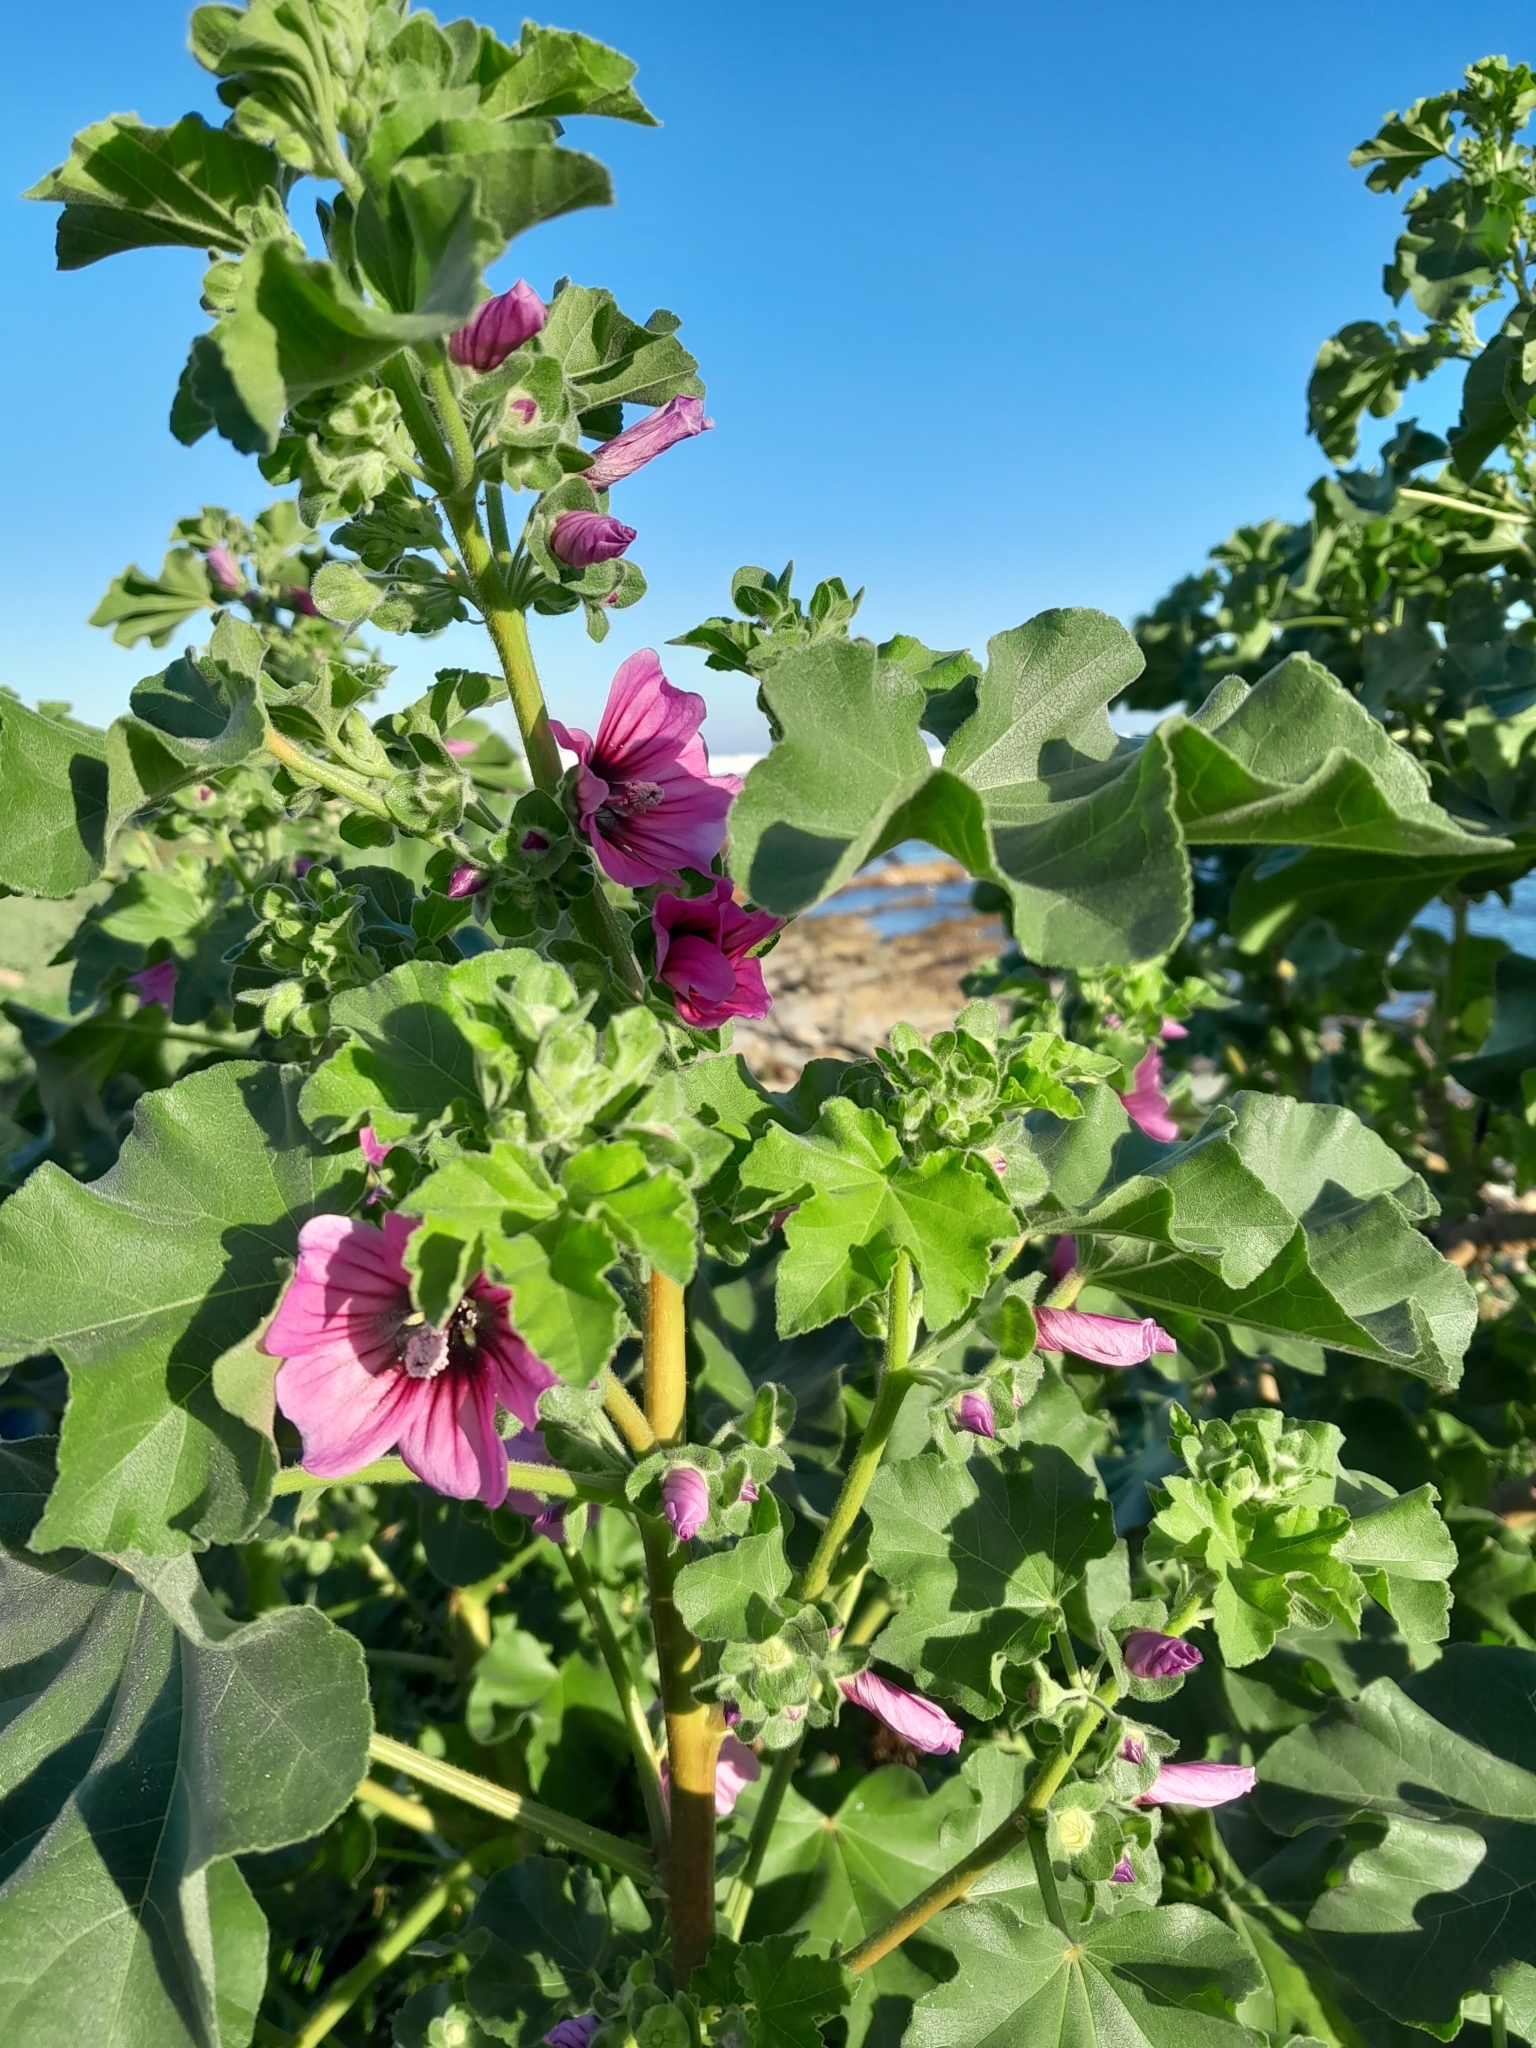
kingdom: Plantae
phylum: Tracheophyta
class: Magnoliopsida
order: Malvales
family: Malvaceae
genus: Malva
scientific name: Malva arborea
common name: Tree mallow
